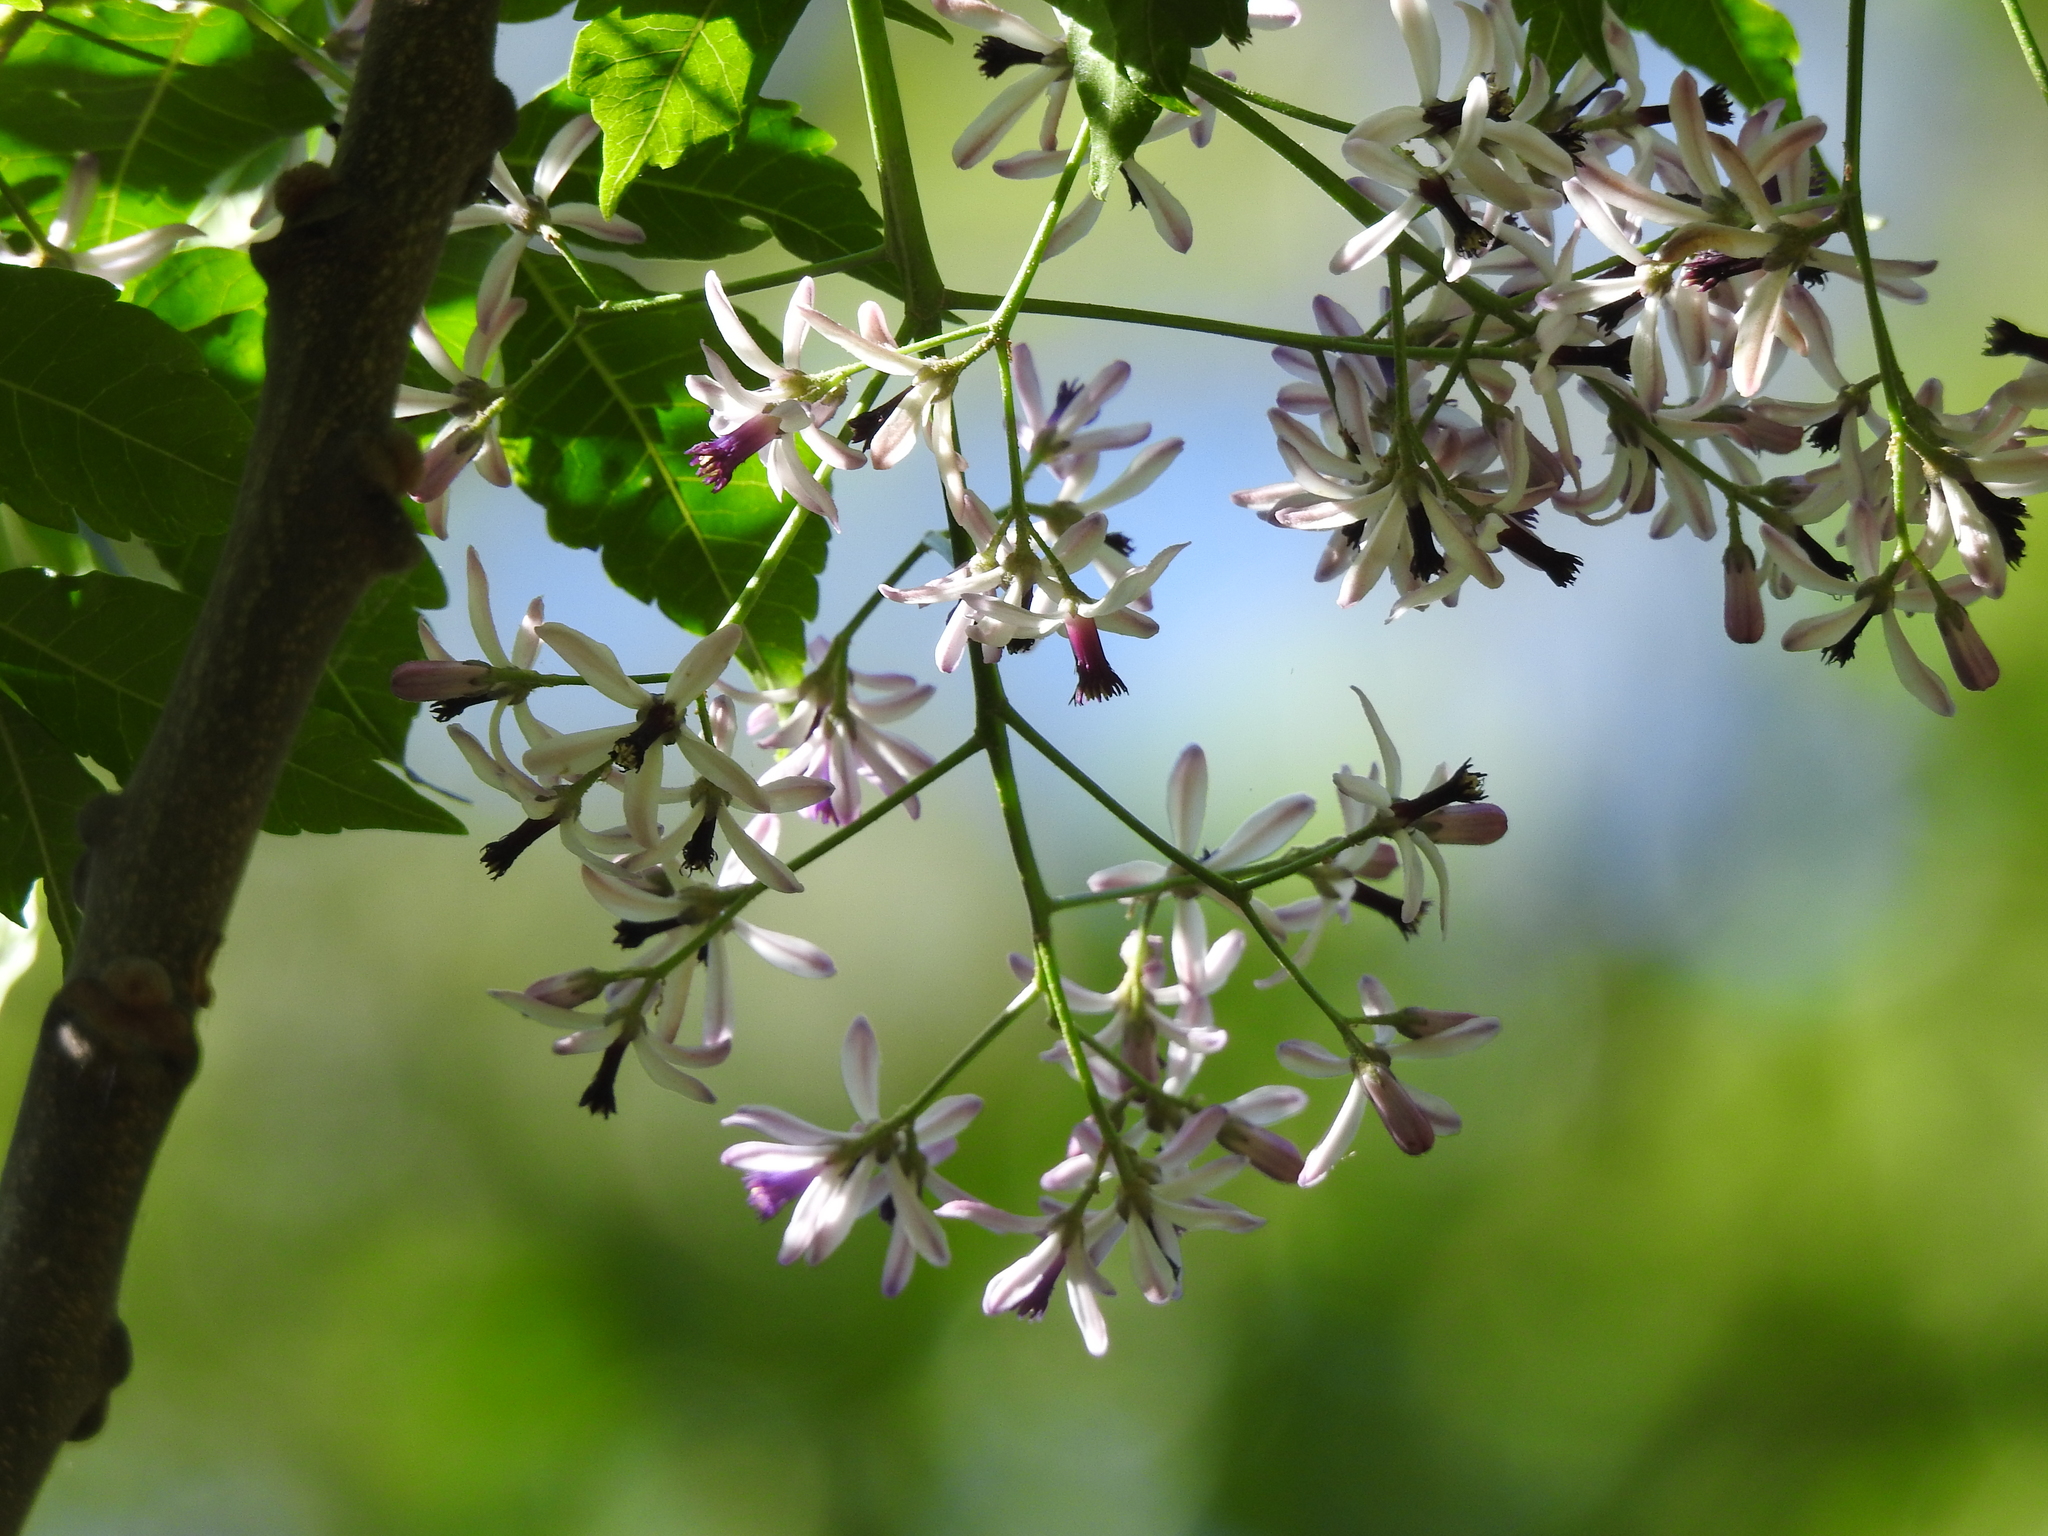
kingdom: Plantae
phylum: Tracheophyta
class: Magnoliopsida
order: Sapindales
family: Meliaceae
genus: Melia
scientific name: Melia azedarach
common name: Chinaberrytree
